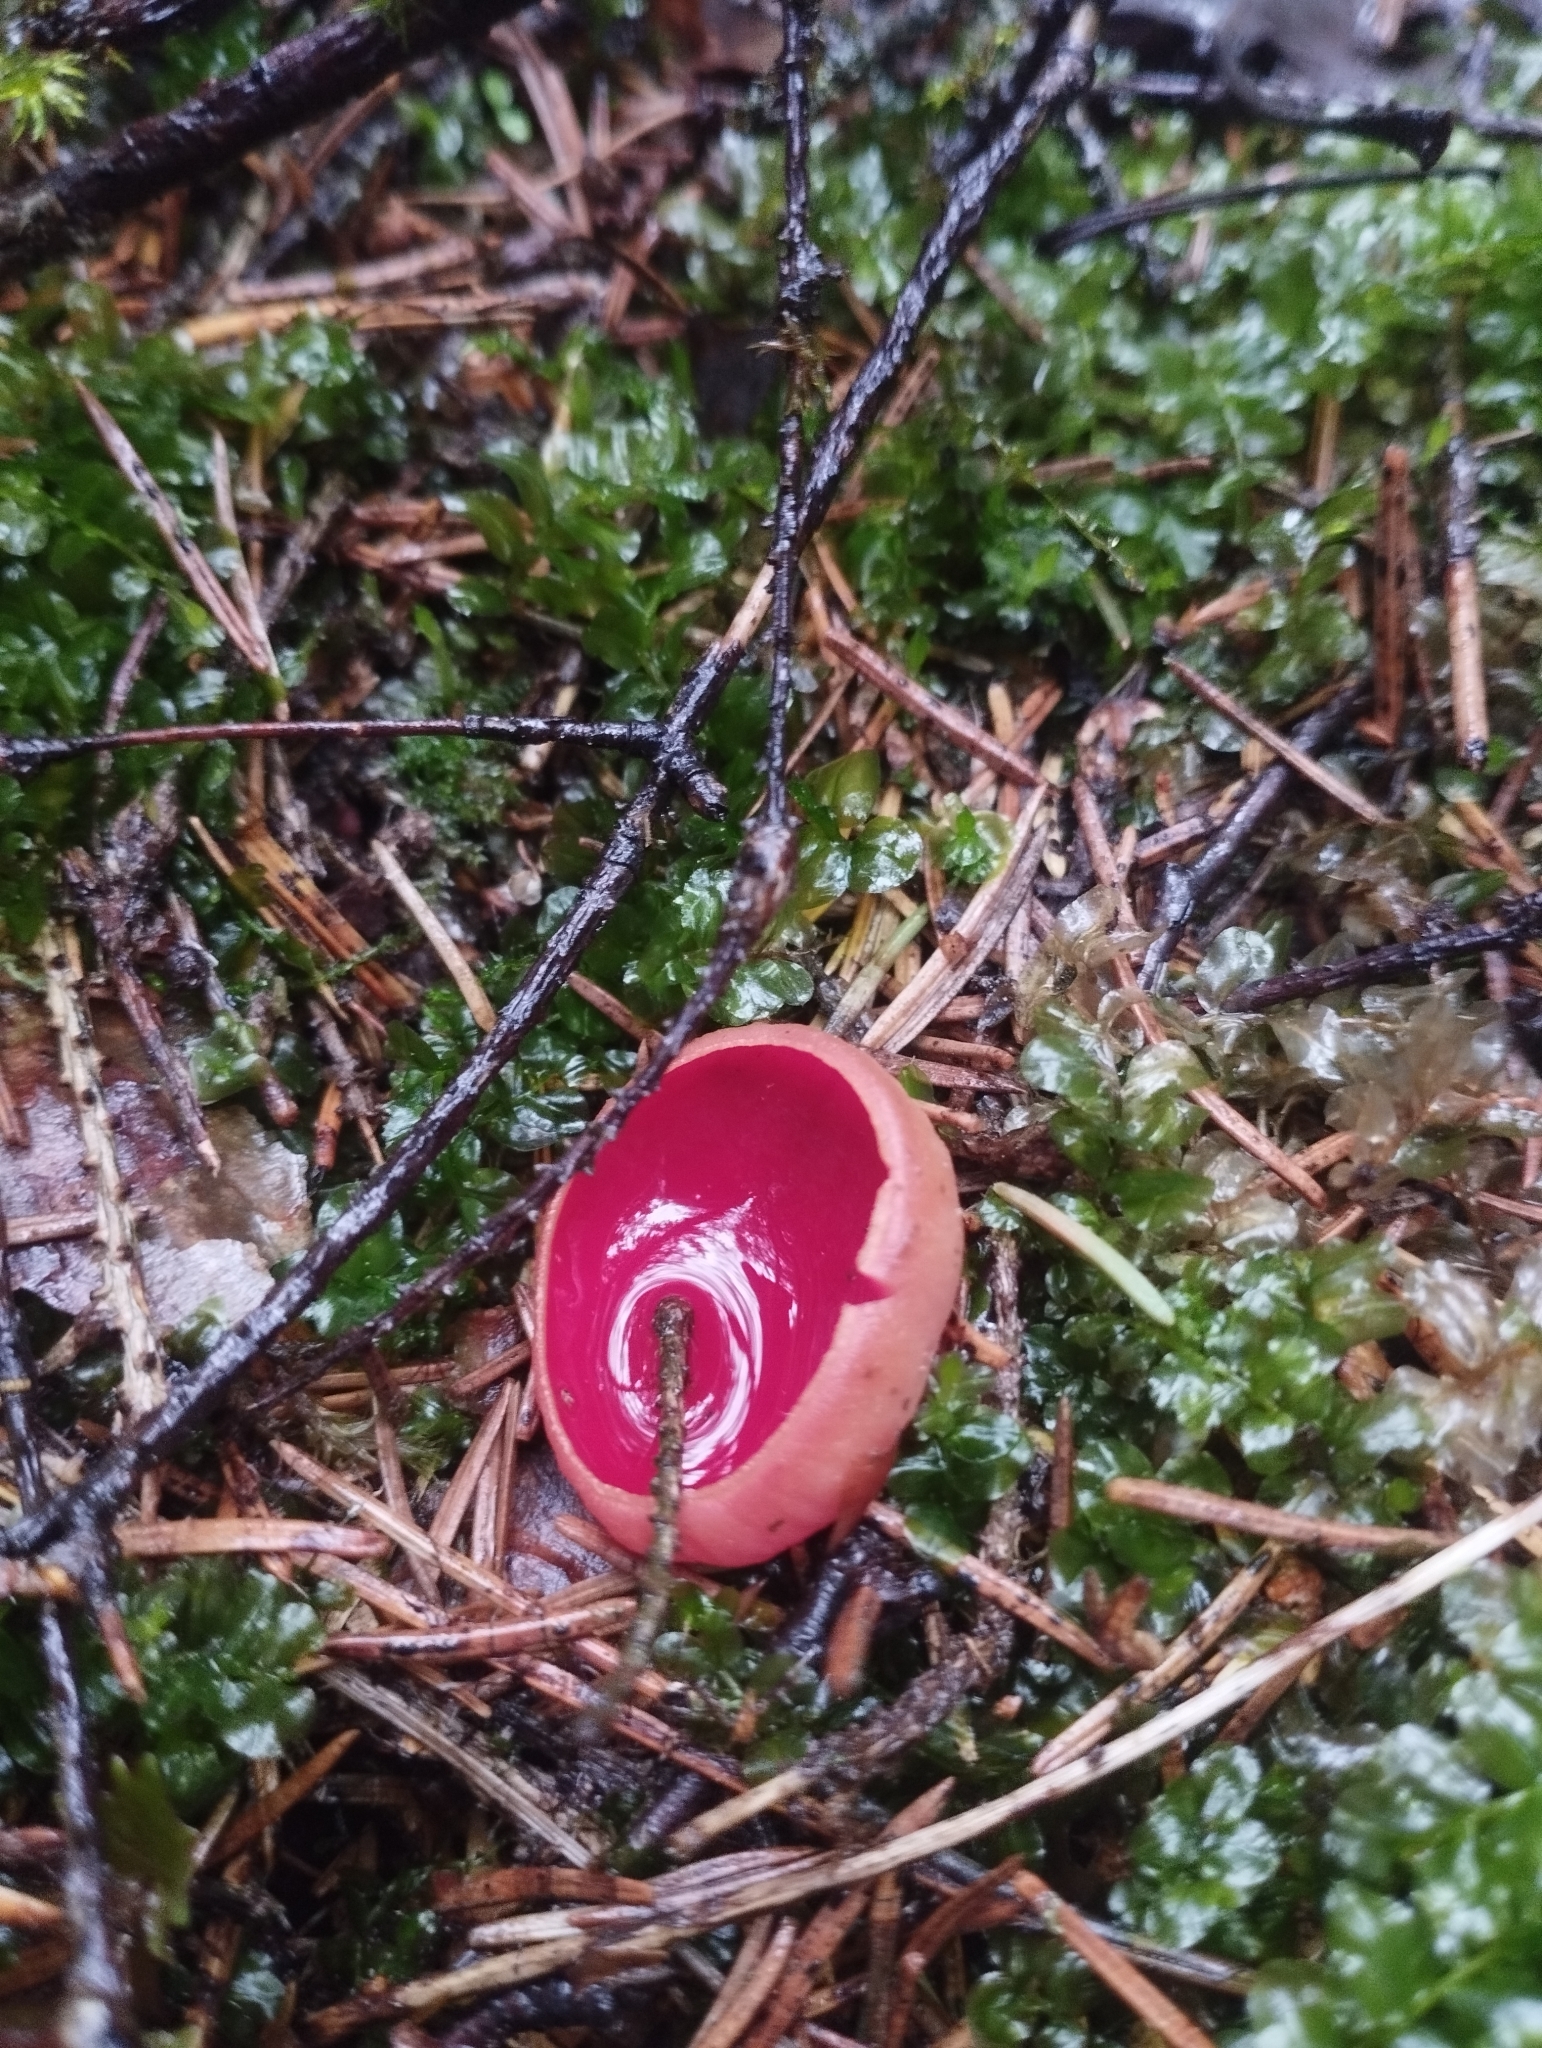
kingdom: Fungi
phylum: Ascomycota
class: Pezizomycetes
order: Pezizales
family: Sarcoscyphaceae
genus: Sarcoscypha
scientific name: Sarcoscypha coccinea
